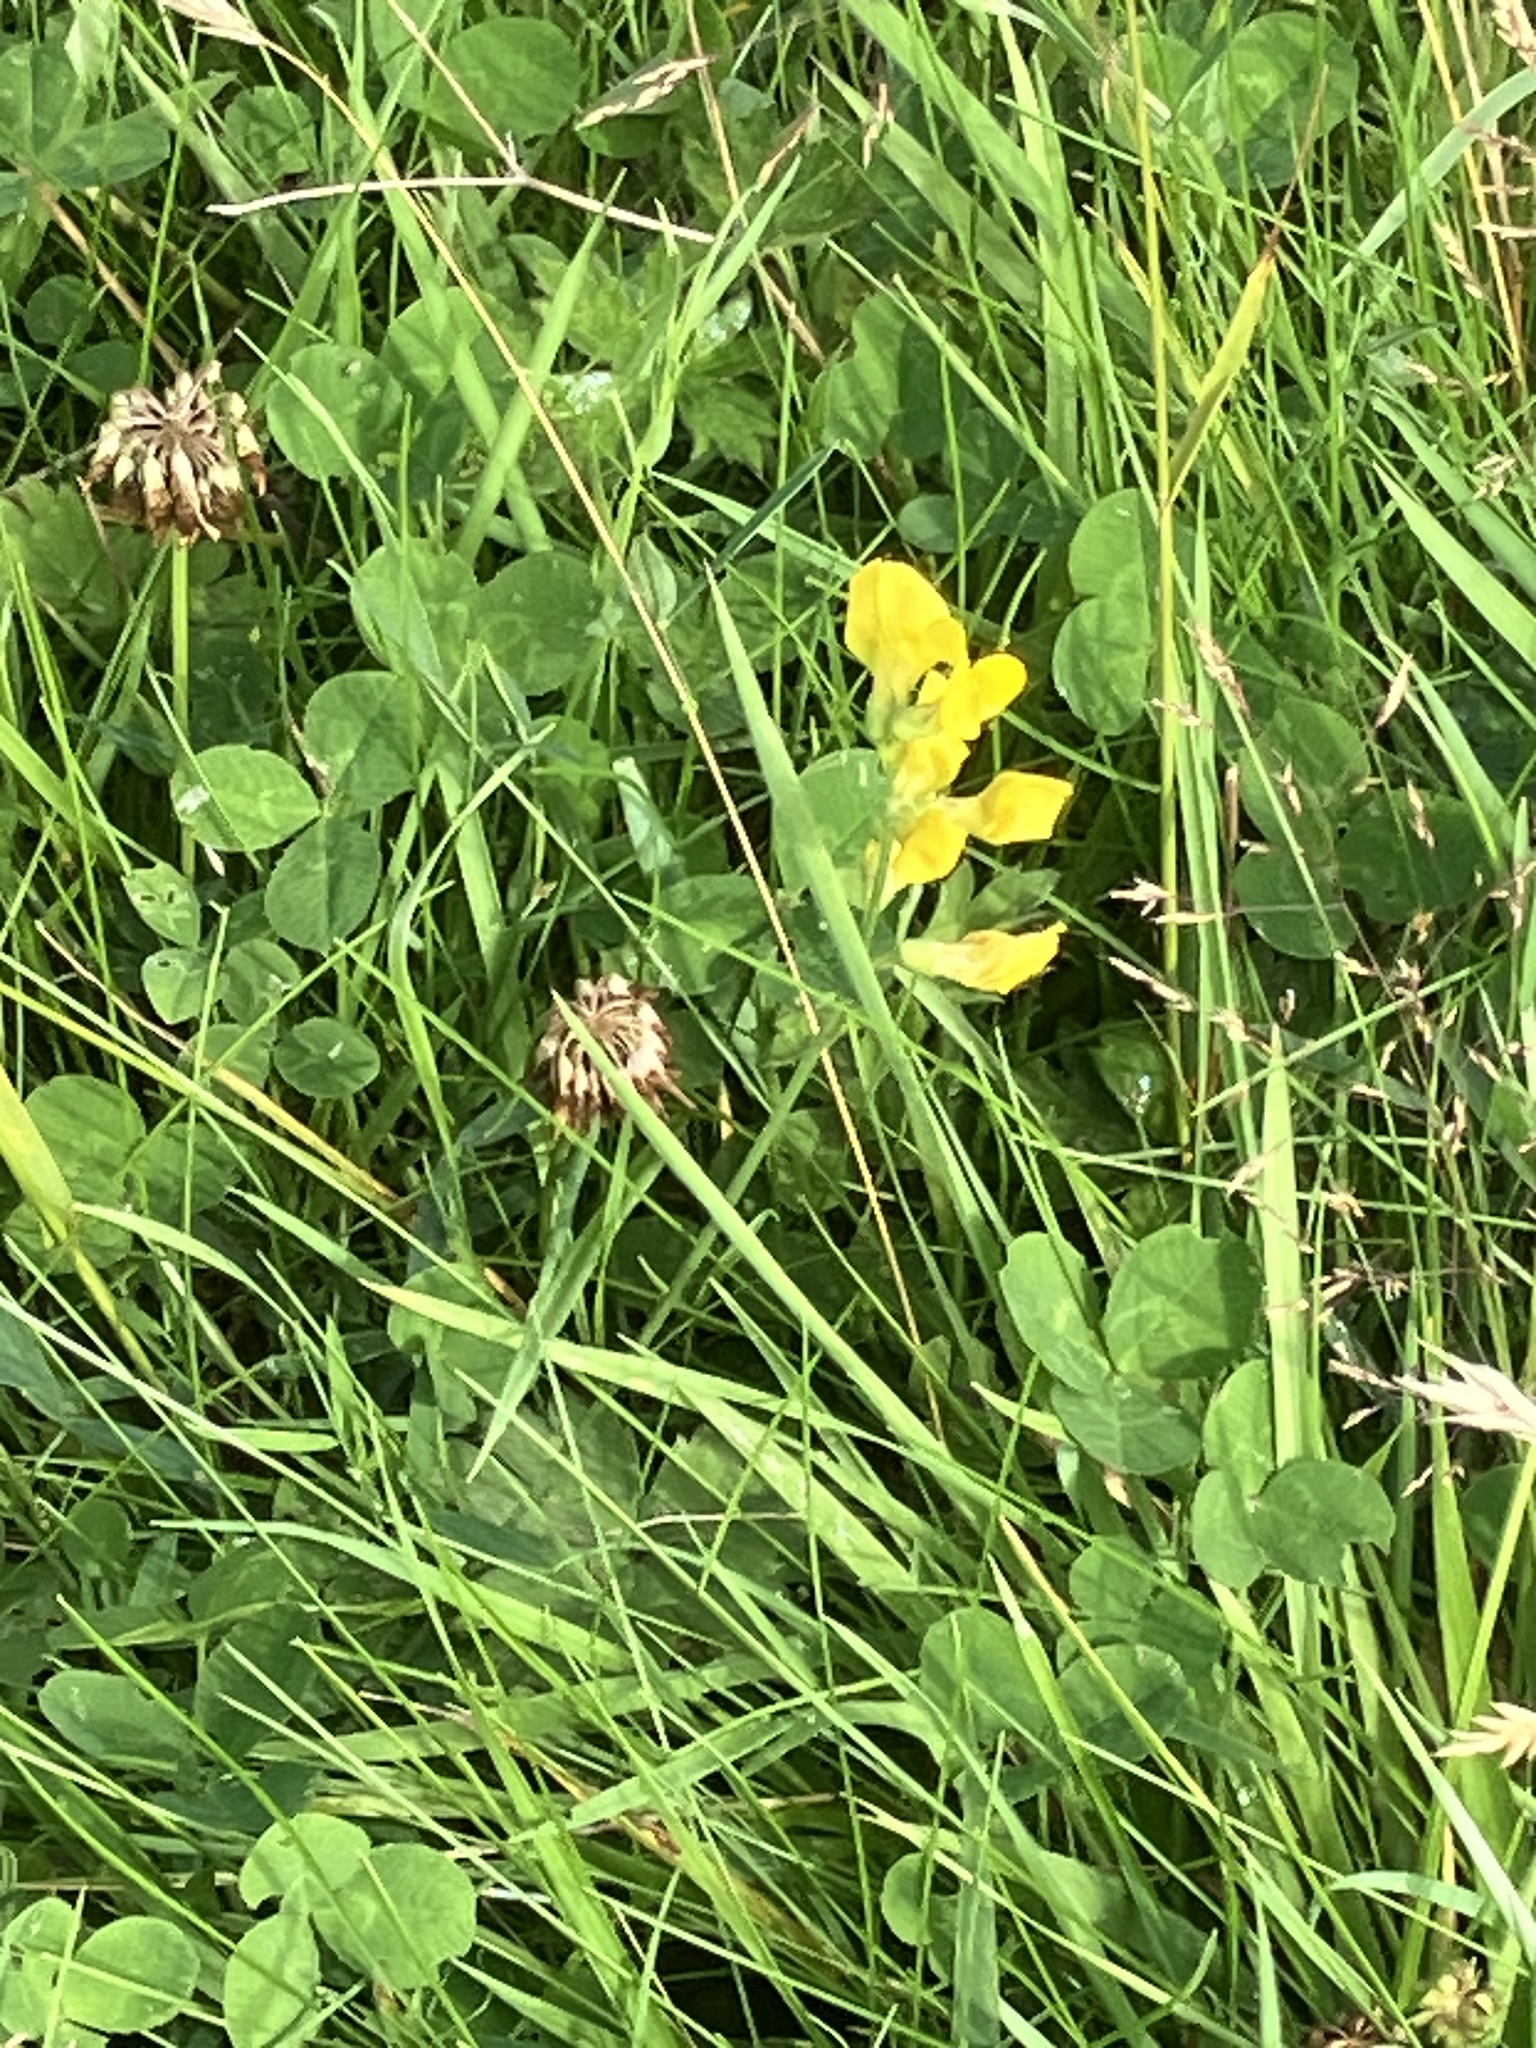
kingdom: Plantae
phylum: Tracheophyta
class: Magnoliopsida
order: Fabales
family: Fabaceae
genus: Lathyrus
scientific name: Lathyrus pratensis
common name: Meadow vetchling
